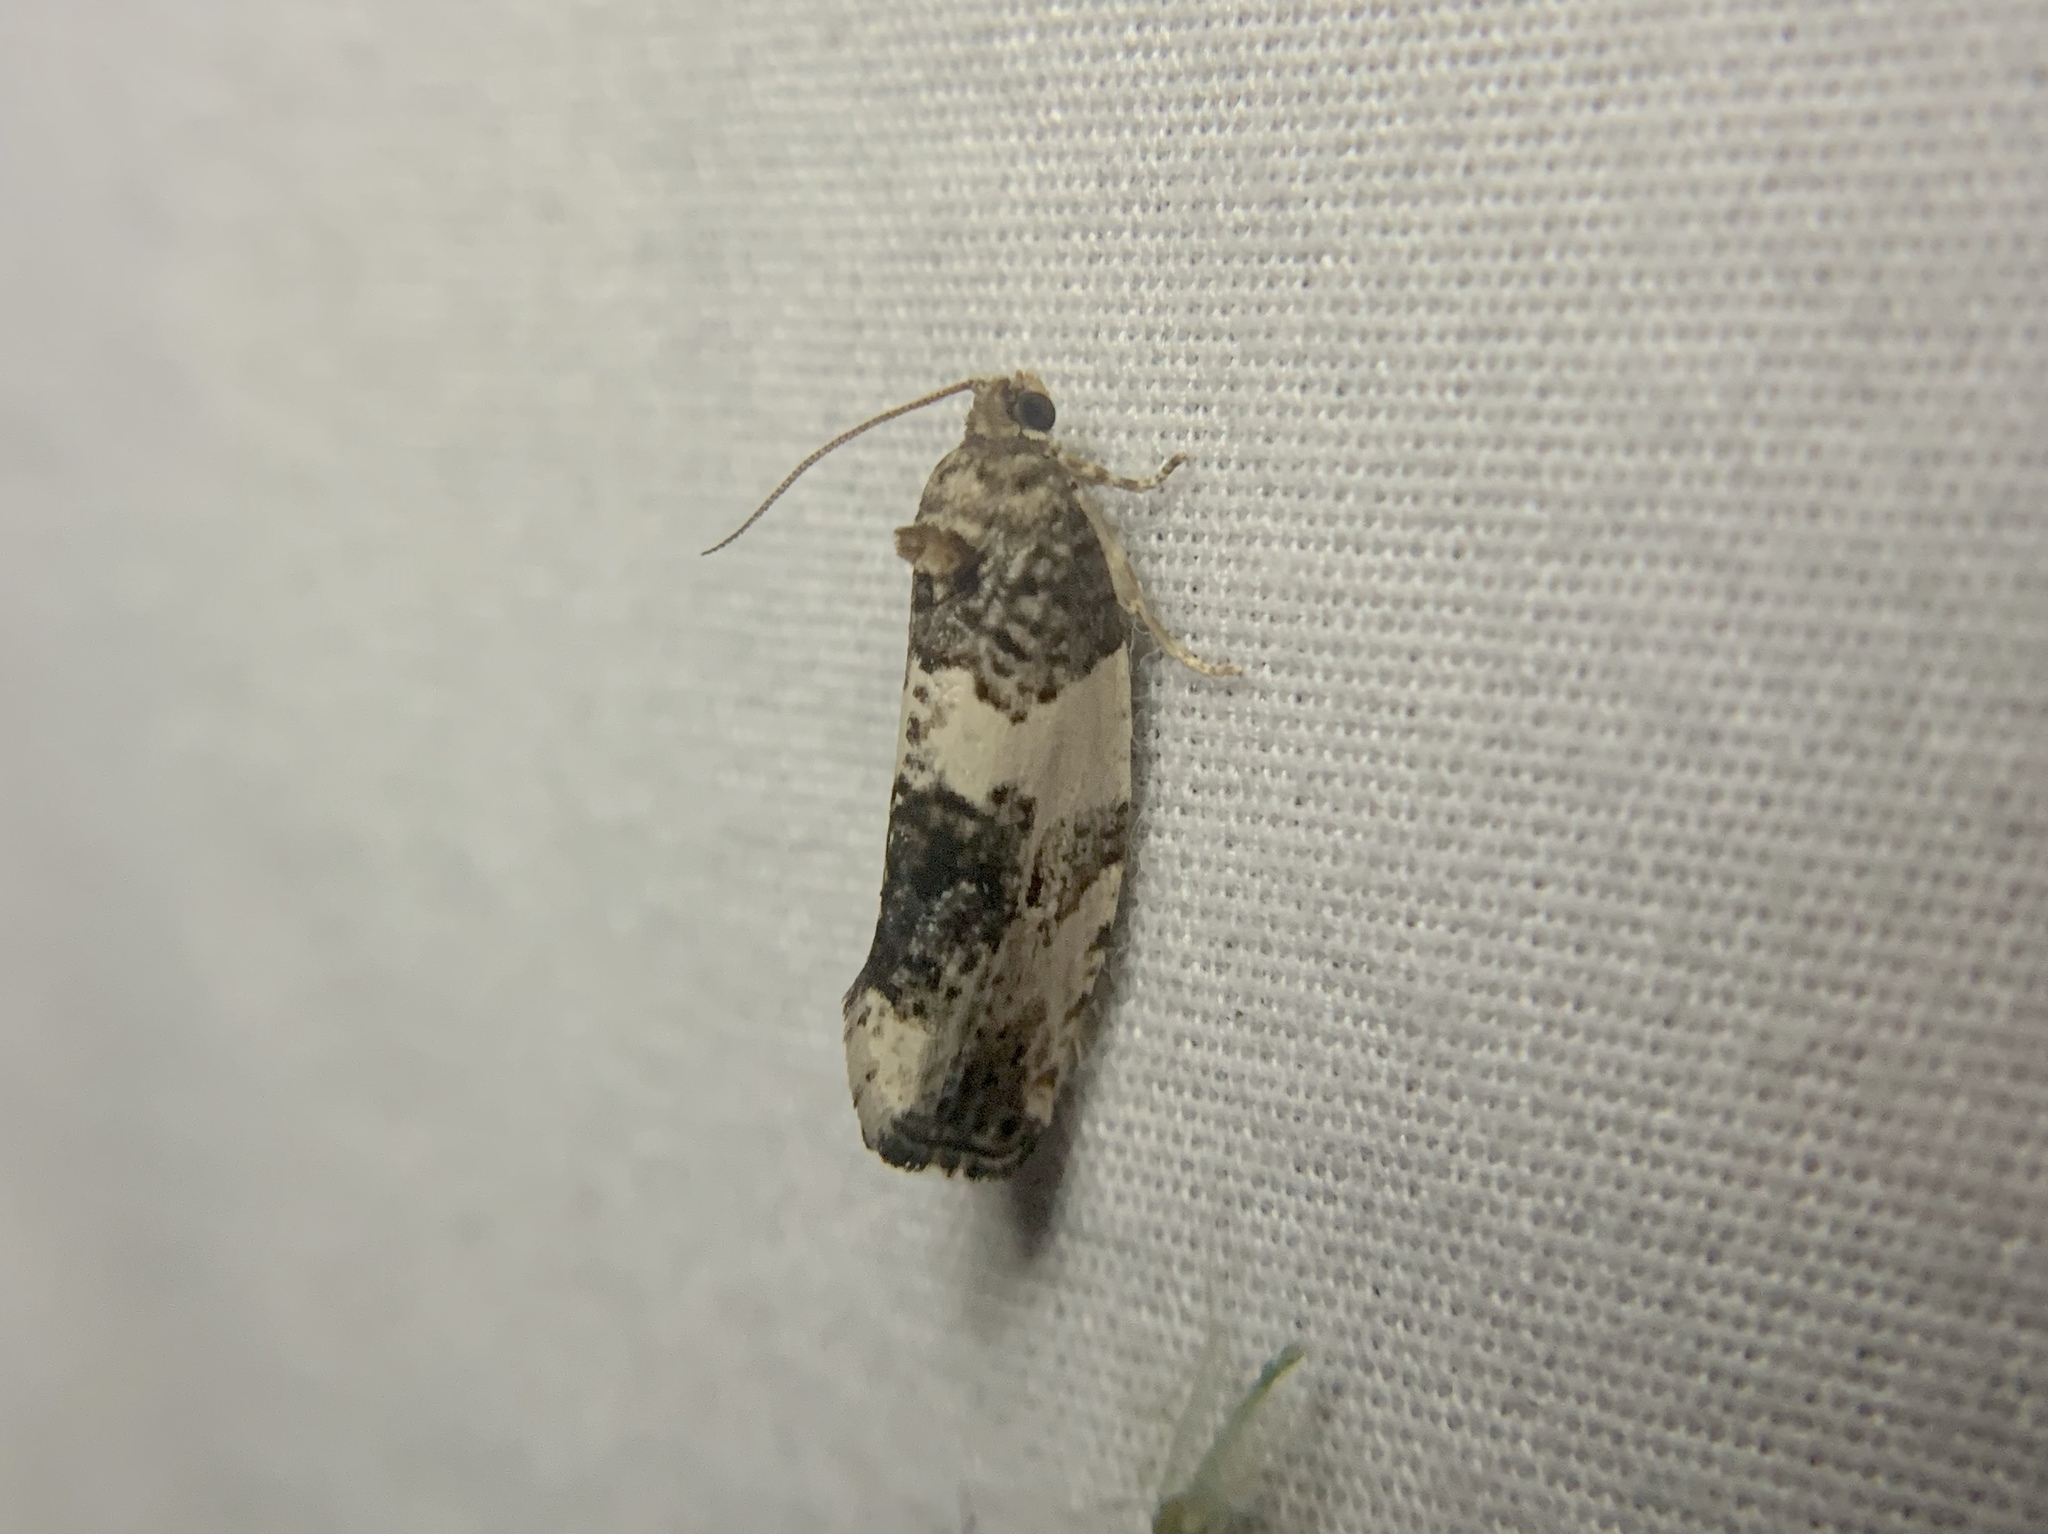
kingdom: Animalia
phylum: Arthropoda
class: Insecta
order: Lepidoptera
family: Tortricidae
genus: Pseudosciaphila
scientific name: Pseudosciaphila duplex
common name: Poplar leafroller moth
